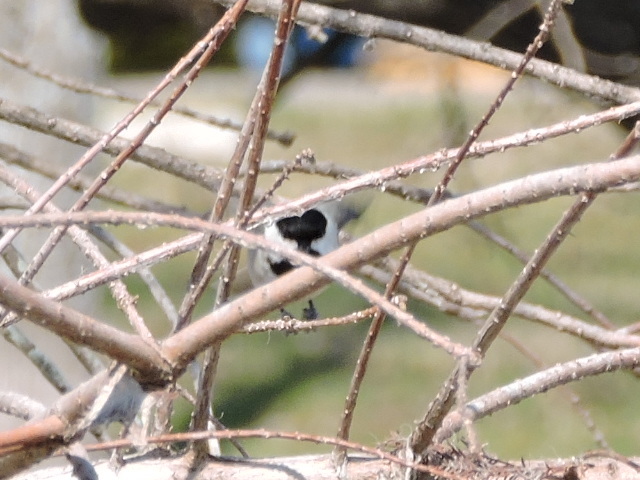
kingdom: Animalia
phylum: Chordata
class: Aves
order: Passeriformes
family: Paridae
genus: Poecile
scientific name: Poecile carolinensis
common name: Carolina chickadee
